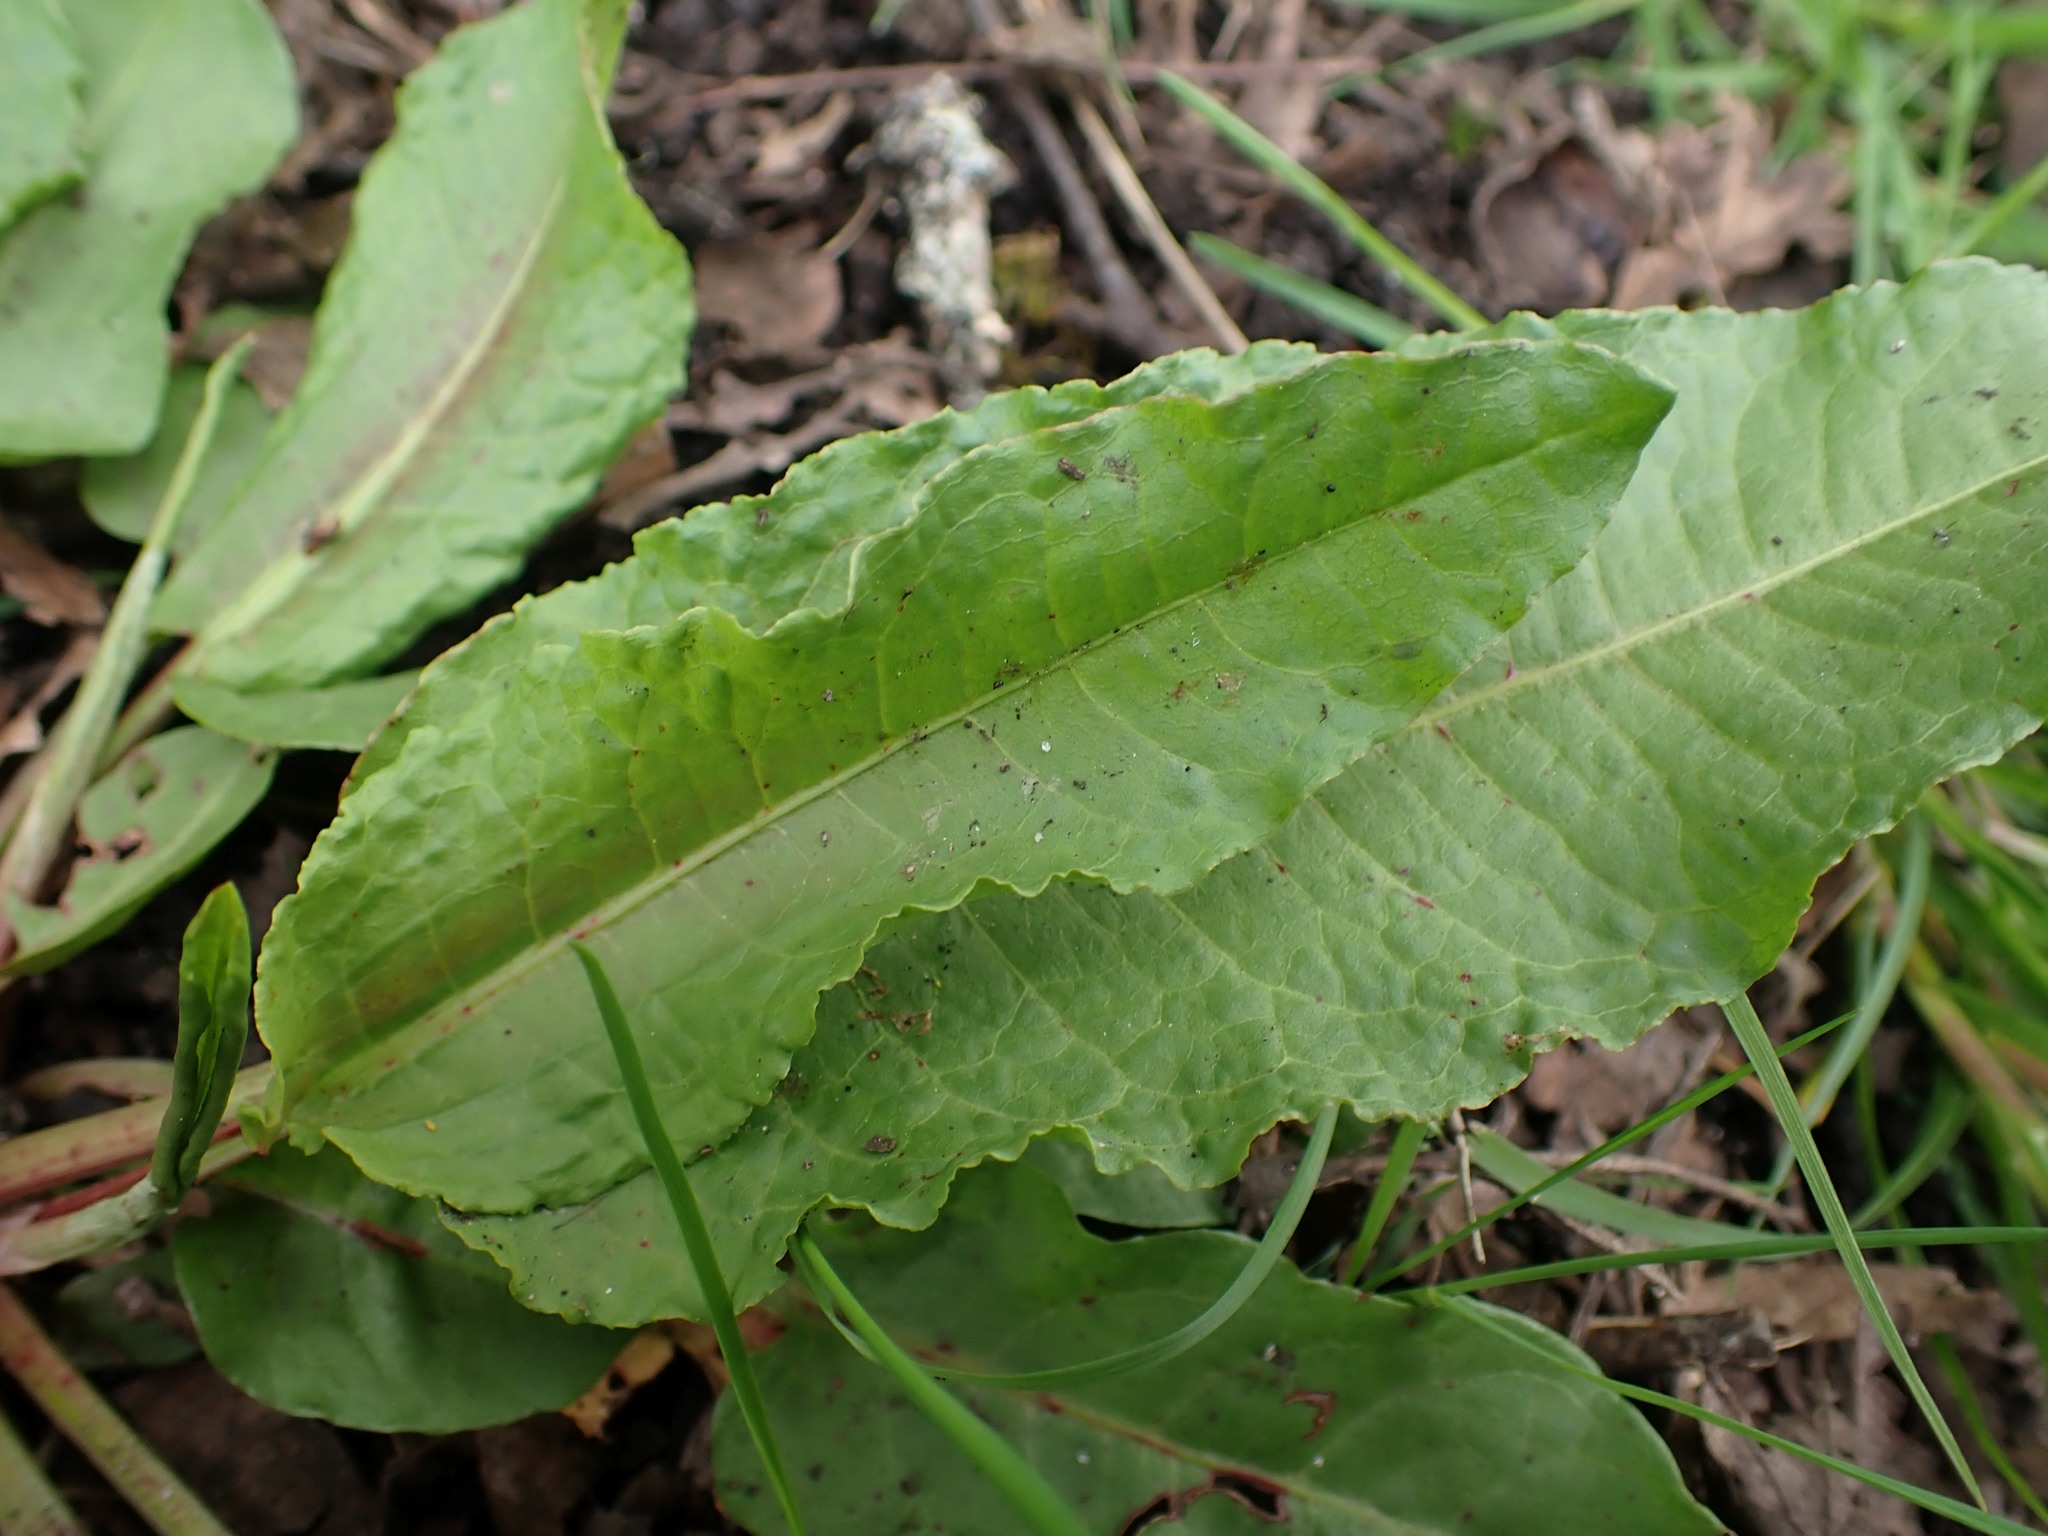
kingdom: Plantae
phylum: Tracheophyta
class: Magnoliopsida
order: Caryophyllales
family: Polygonaceae
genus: Rumex
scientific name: Rumex obtusifolius
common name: Bitter dock
